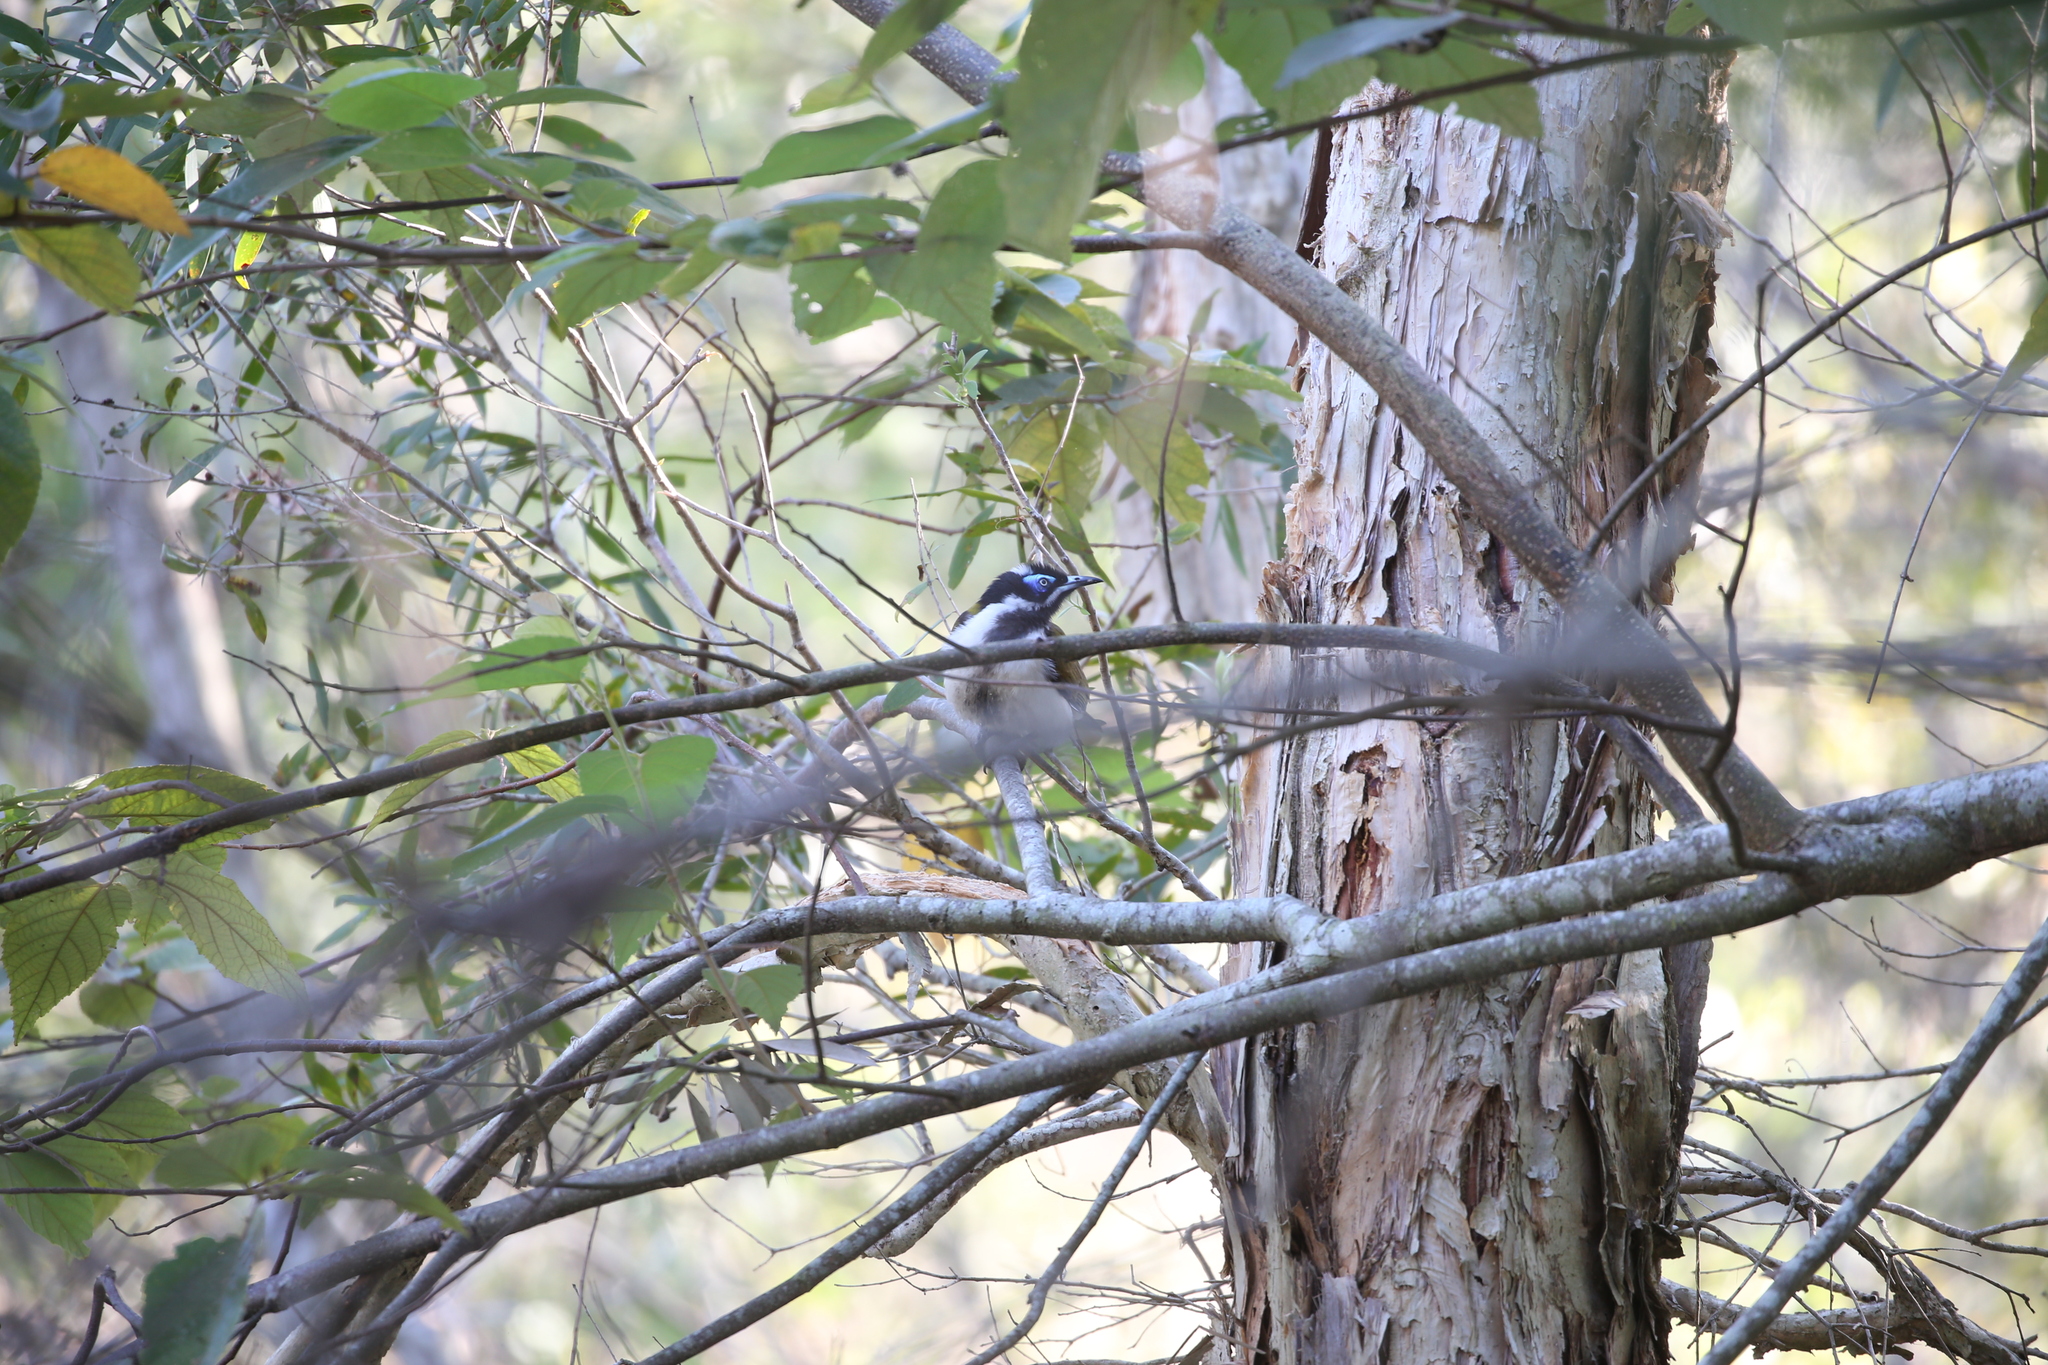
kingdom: Animalia
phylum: Chordata
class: Aves
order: Passeriformes
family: Meliphagidae
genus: Entomyzon
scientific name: Entomyzon cyanotis
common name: Blue-faced honeyeater
